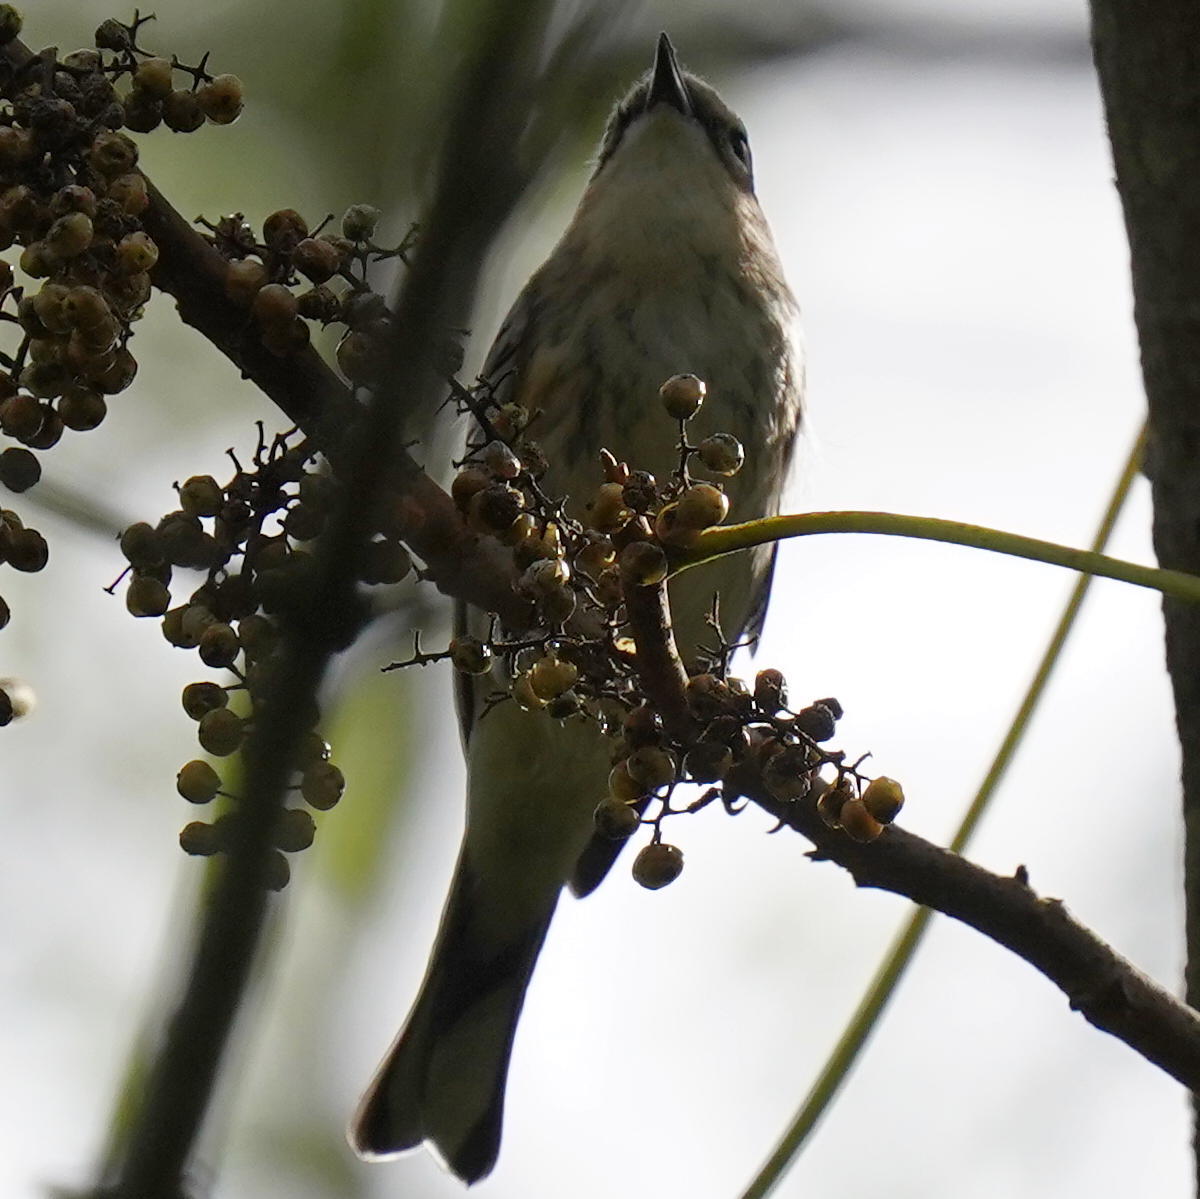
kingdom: Animalia
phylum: Chordata
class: Aves
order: Passeriformes
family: Parulidae
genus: Setophaga
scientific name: Setophaga coronata
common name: Myrtle warbler
